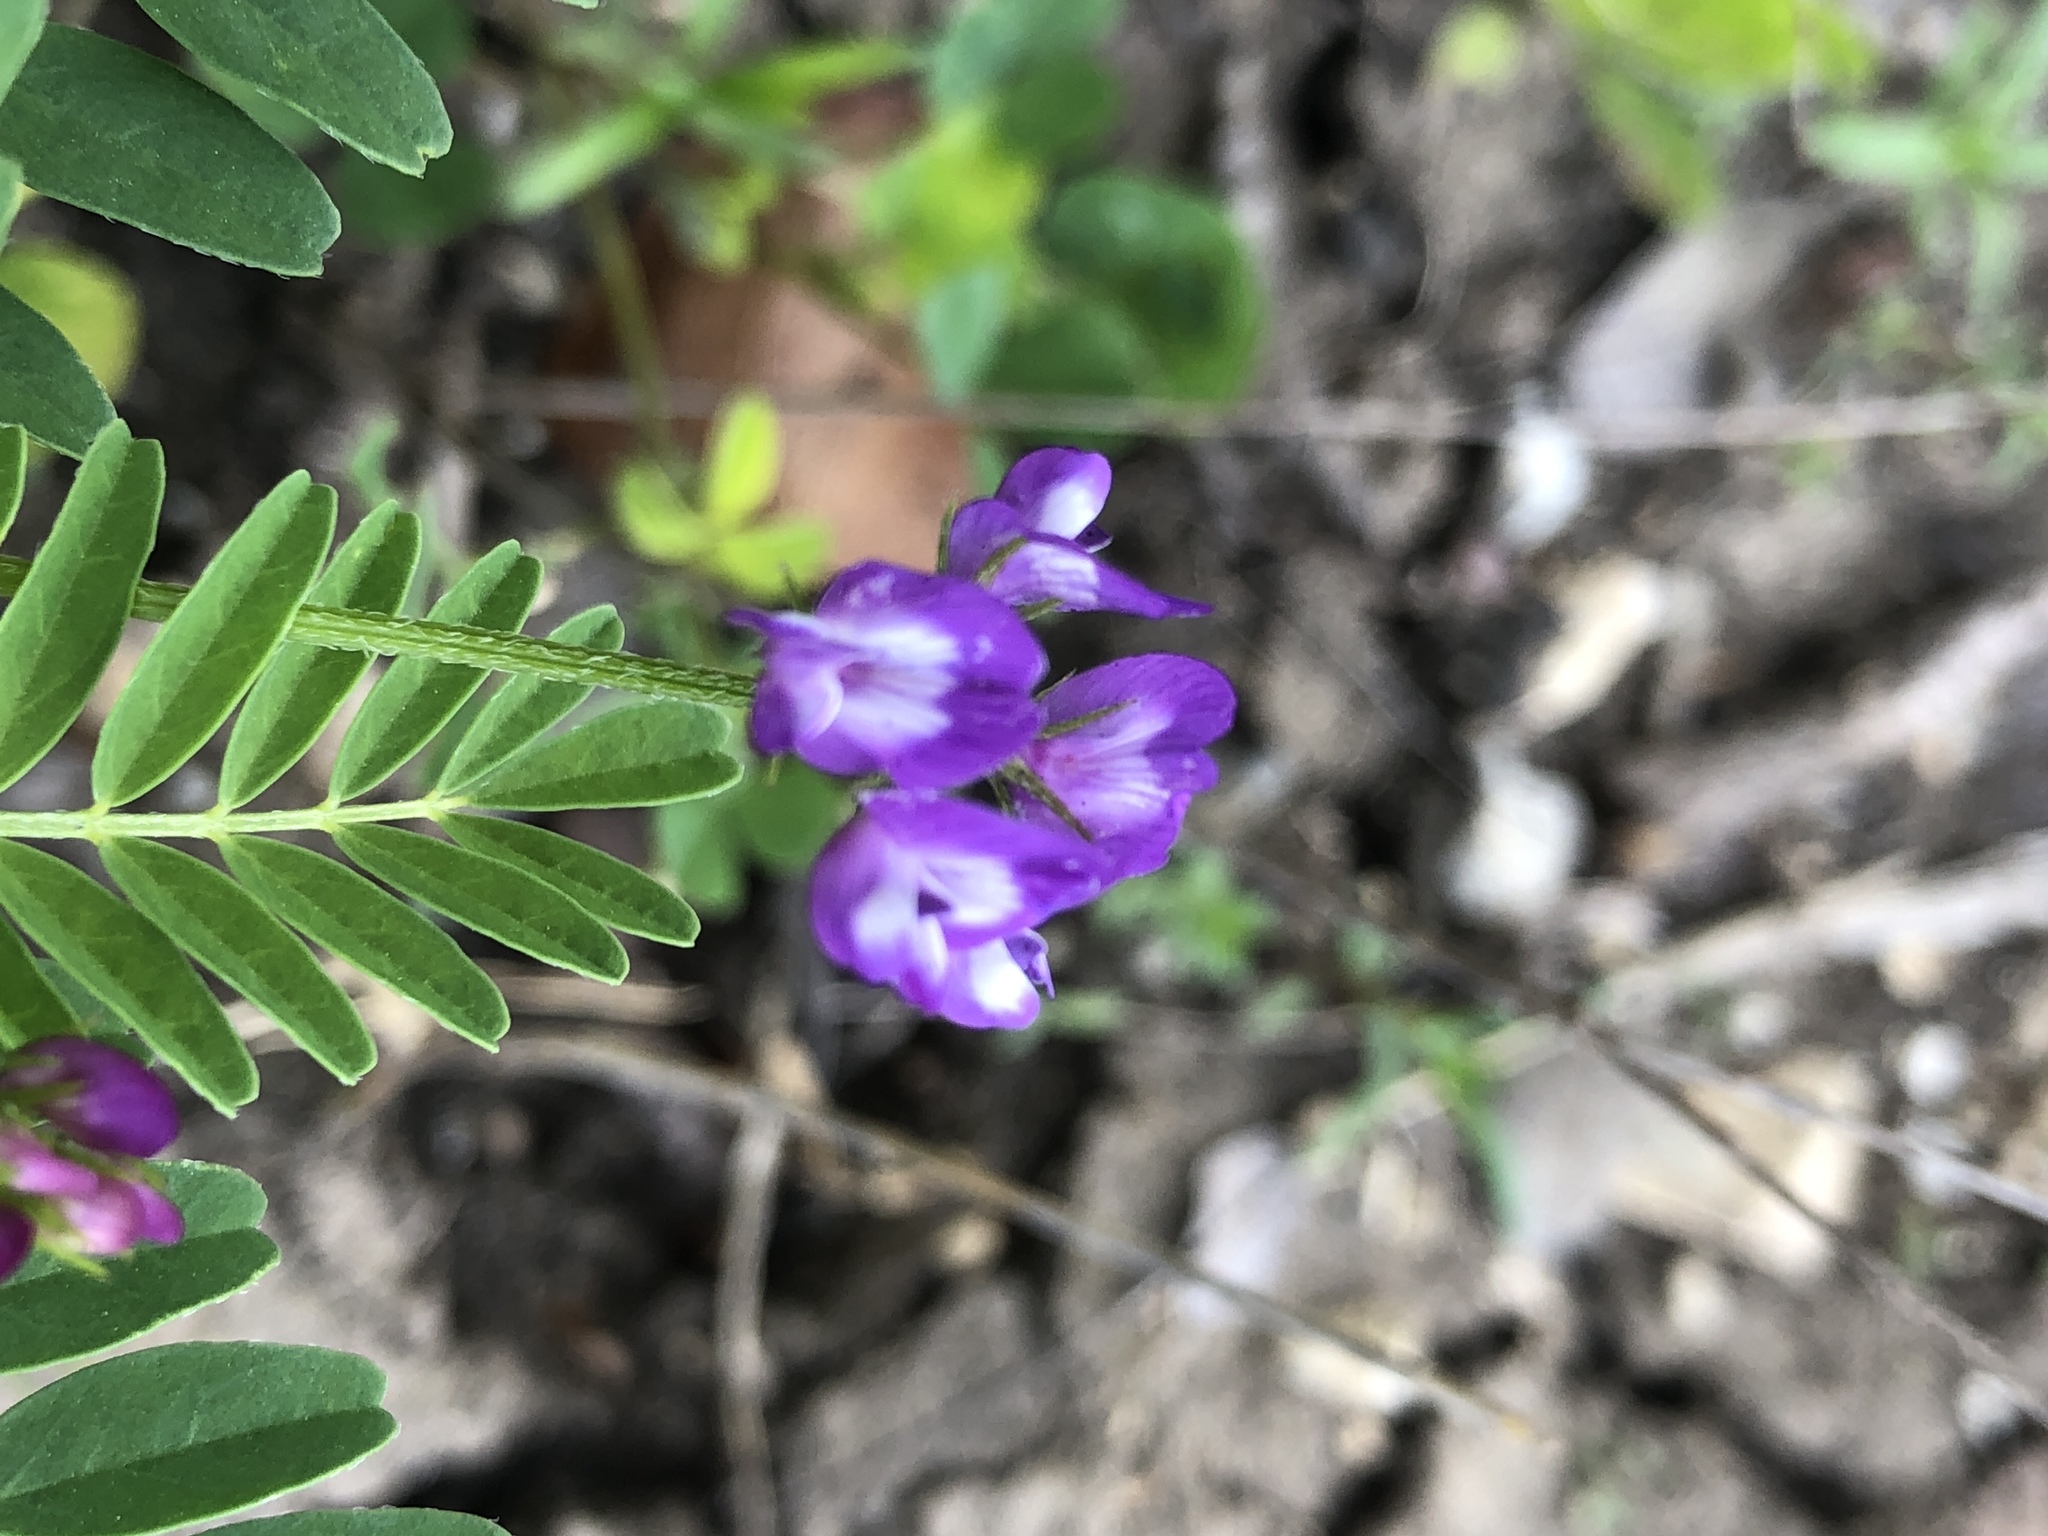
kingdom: Plantae
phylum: Tracheophyta
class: Magnoliopsida
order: Fabales
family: Fabaceae
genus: Astragalus
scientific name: Astragalus nuttallianus
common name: Smallflowered milkvetch
